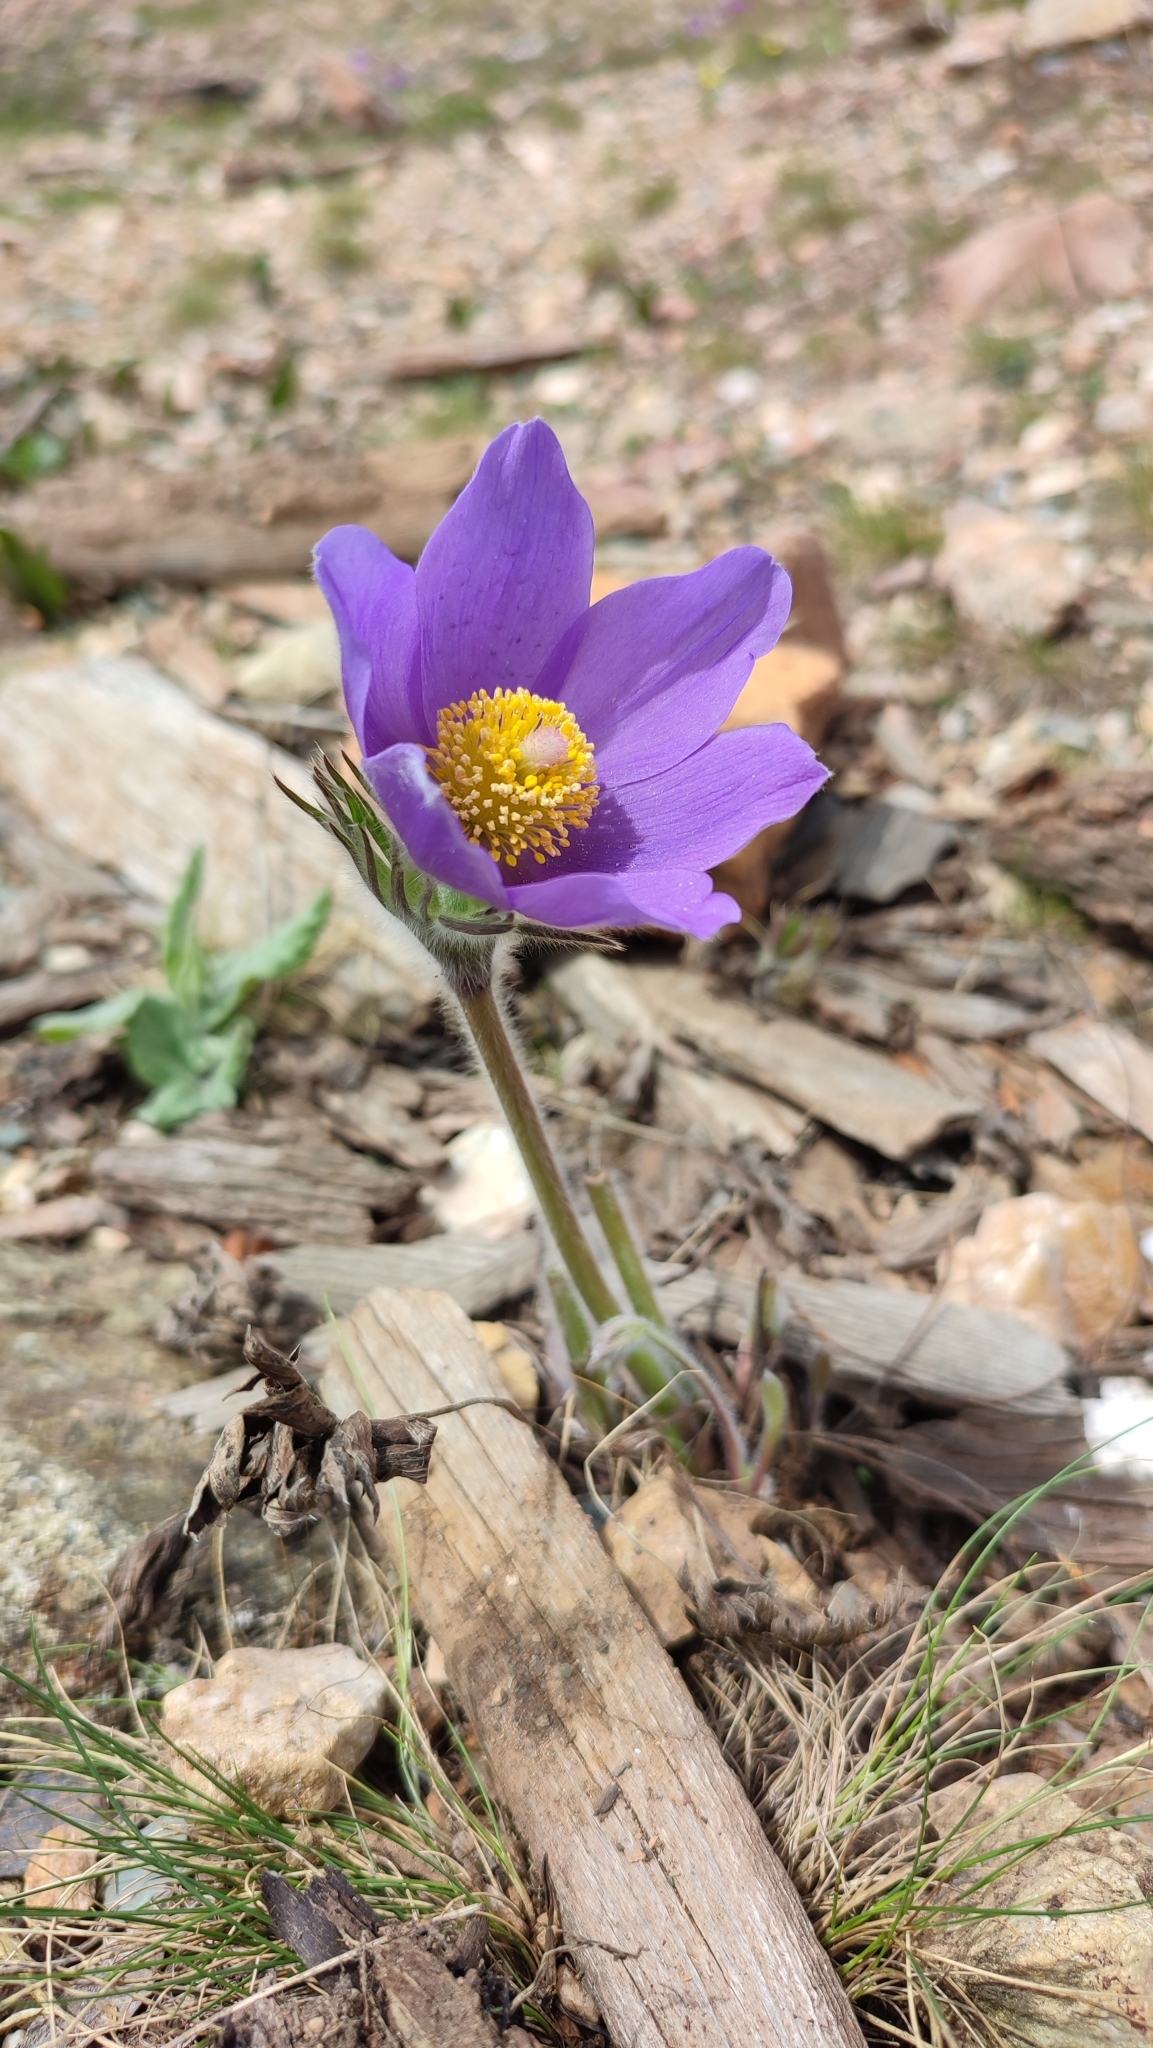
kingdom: Plantae
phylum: Tracheophyta
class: Magnoliopsida
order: Ranunculales
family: Ranunculaceae
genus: Pulsatilla
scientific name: Pulsatilla patens
